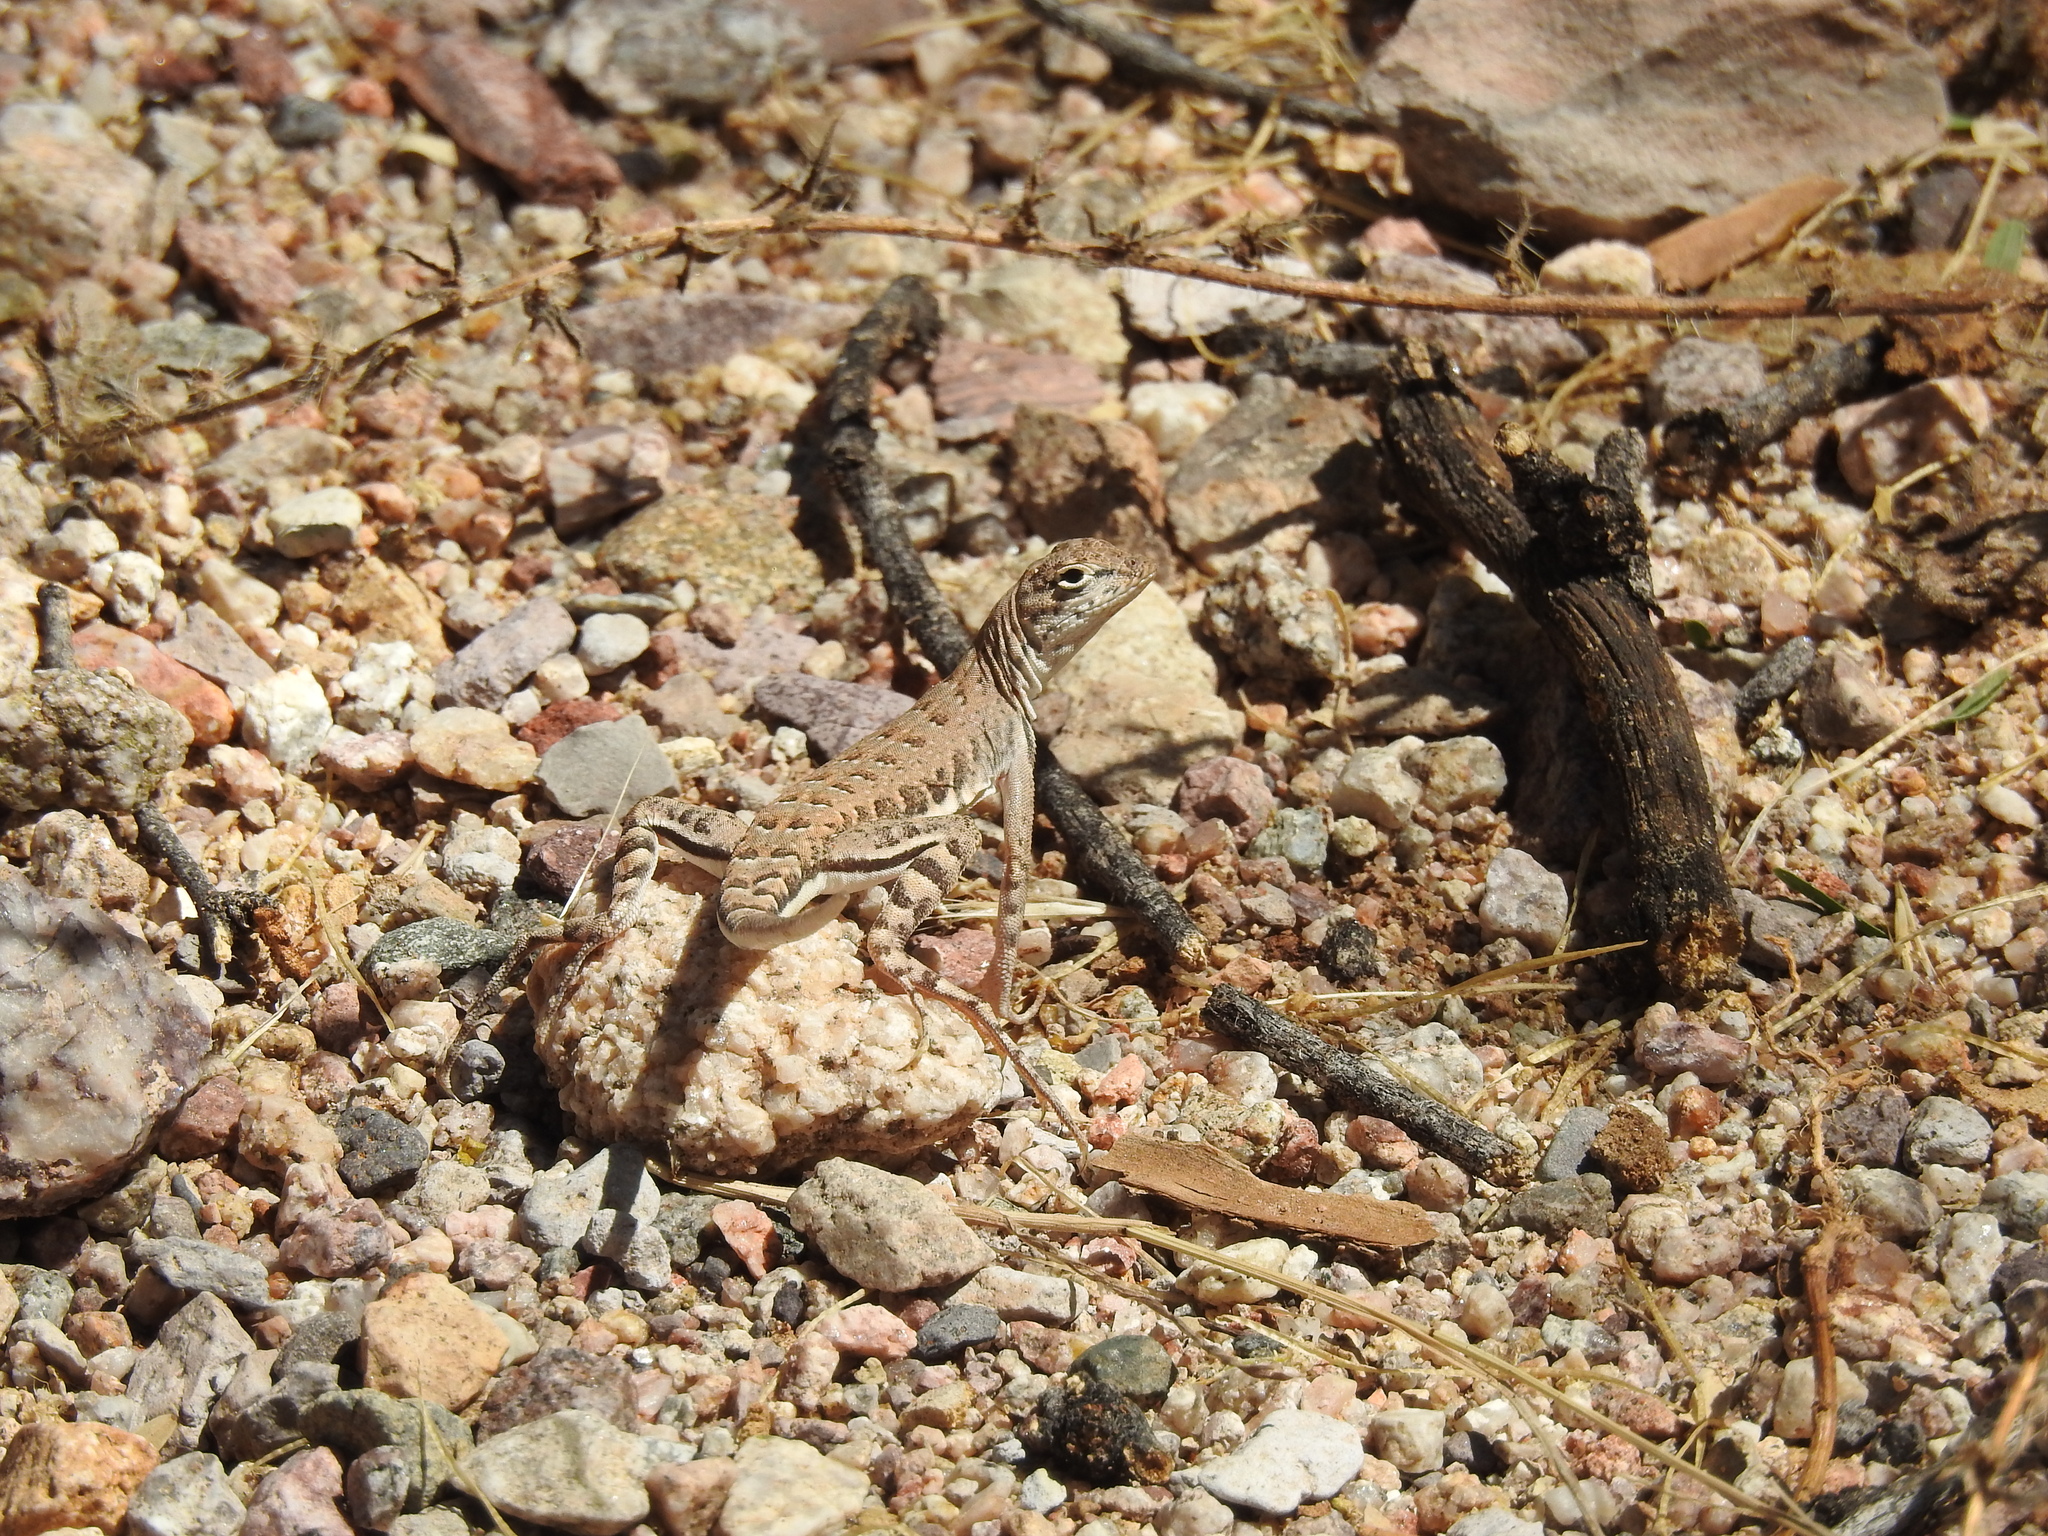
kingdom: Animalia
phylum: Chordata
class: Squamata
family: Phrynosomatidae
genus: Callisaurus
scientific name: Callisaurus draconoides
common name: Zebra-tailed lizard
